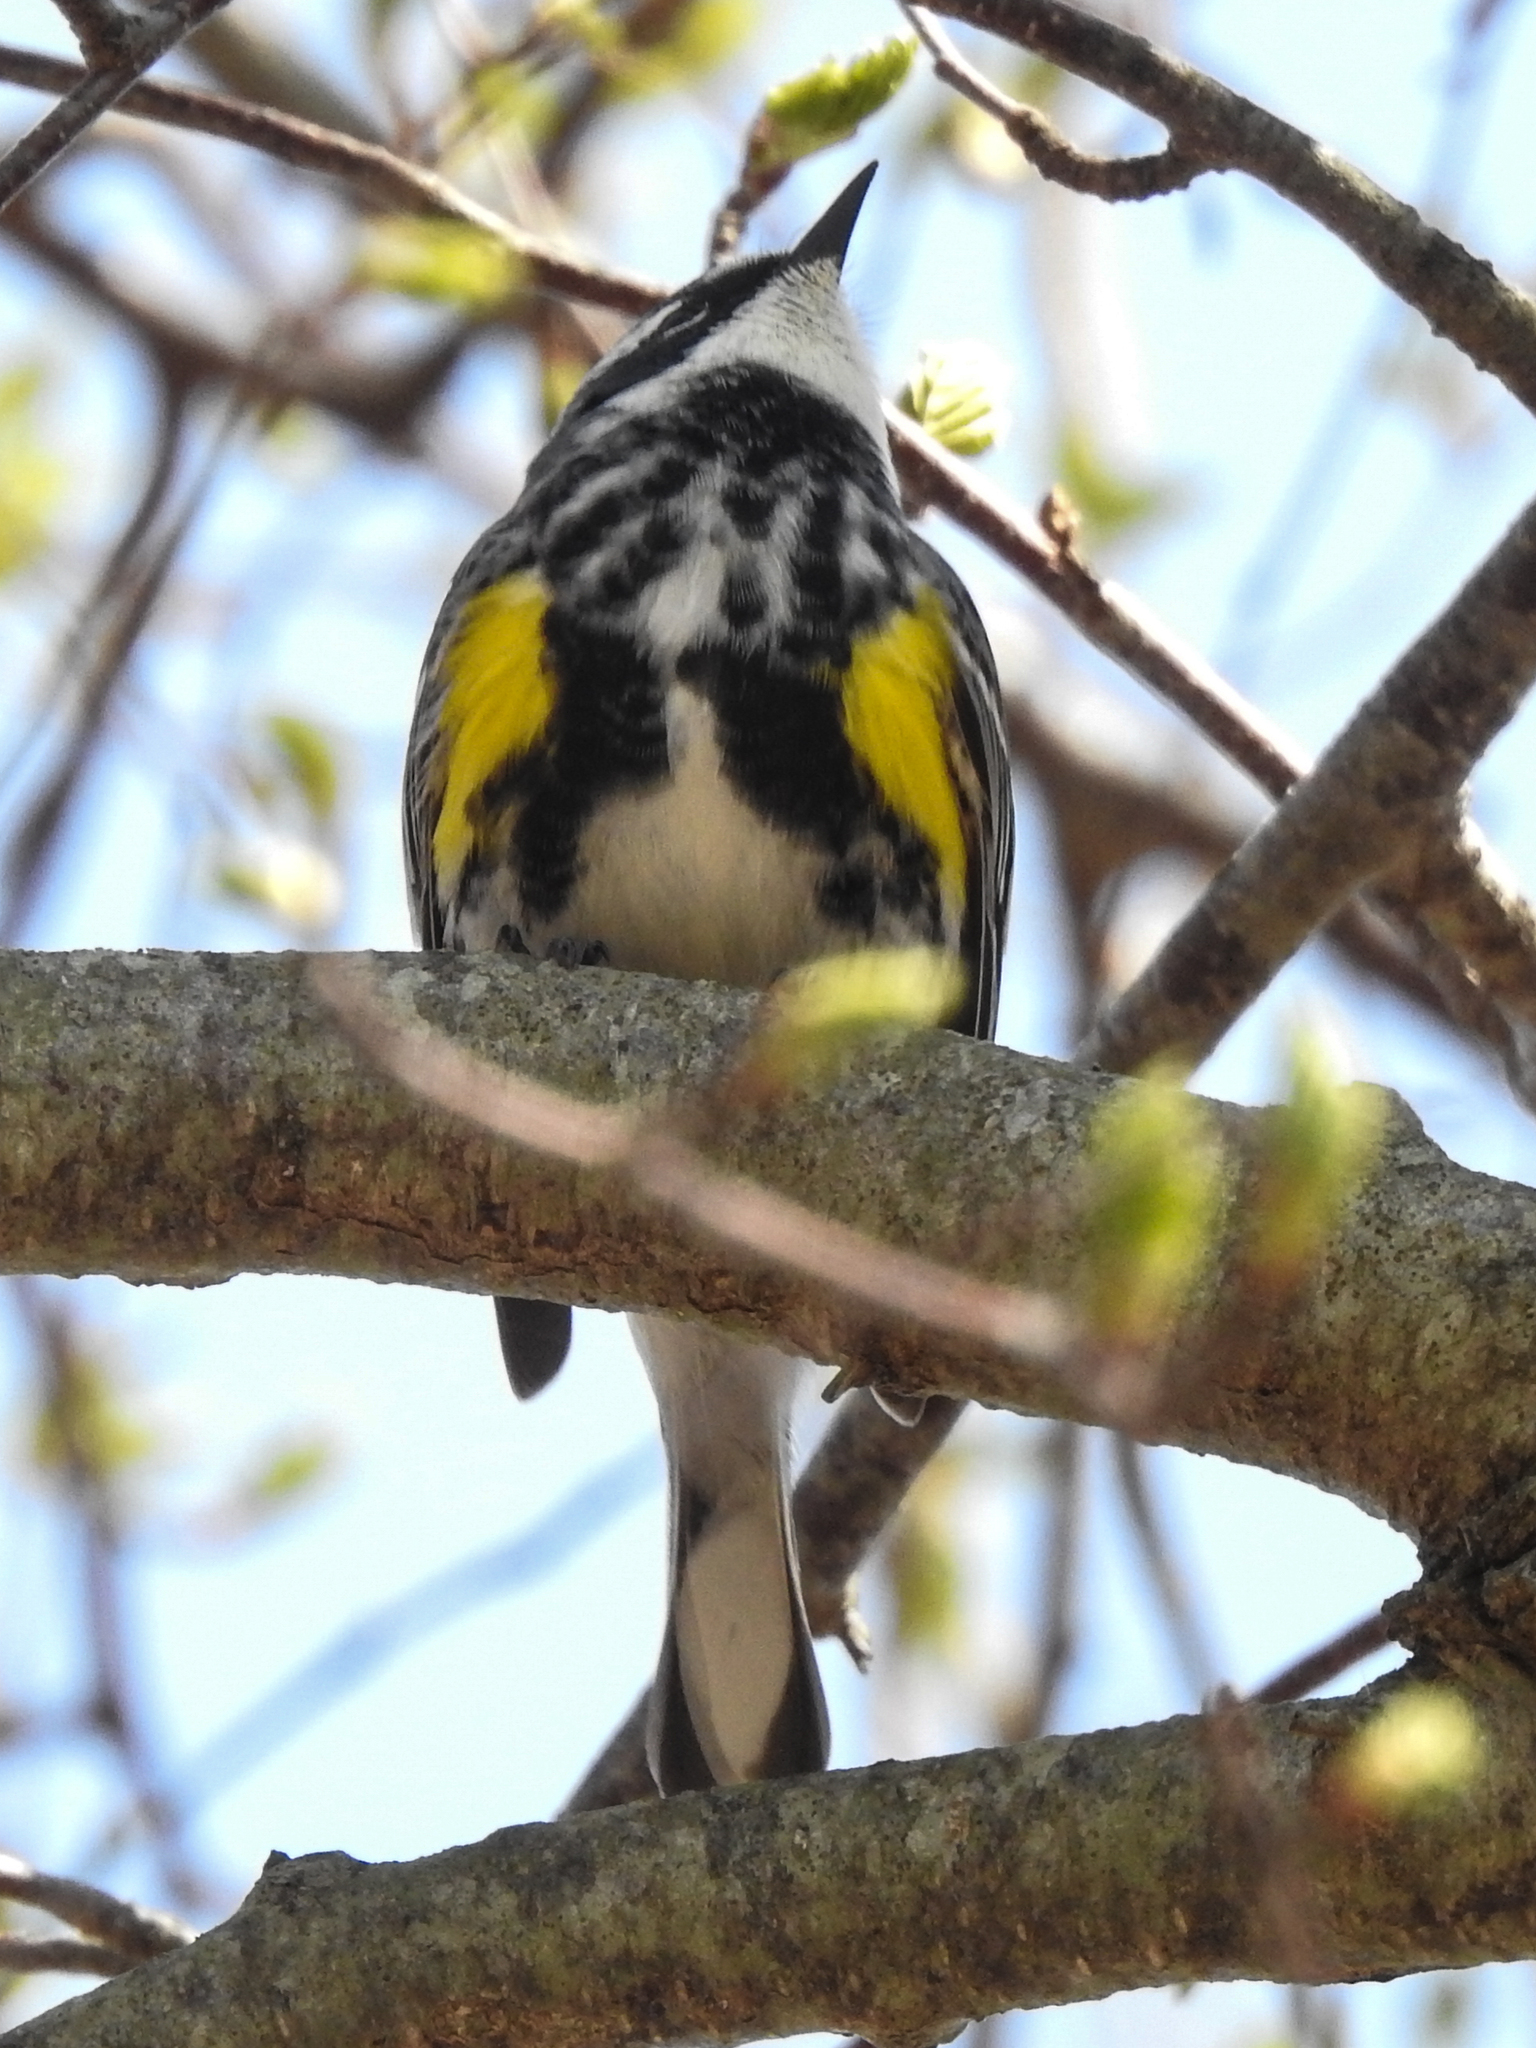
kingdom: Animalia
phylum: Chordata
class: Aves
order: Passeriformes
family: Parulidae
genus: Setophaga
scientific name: Setophaga coronata
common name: Myrtle warbler
